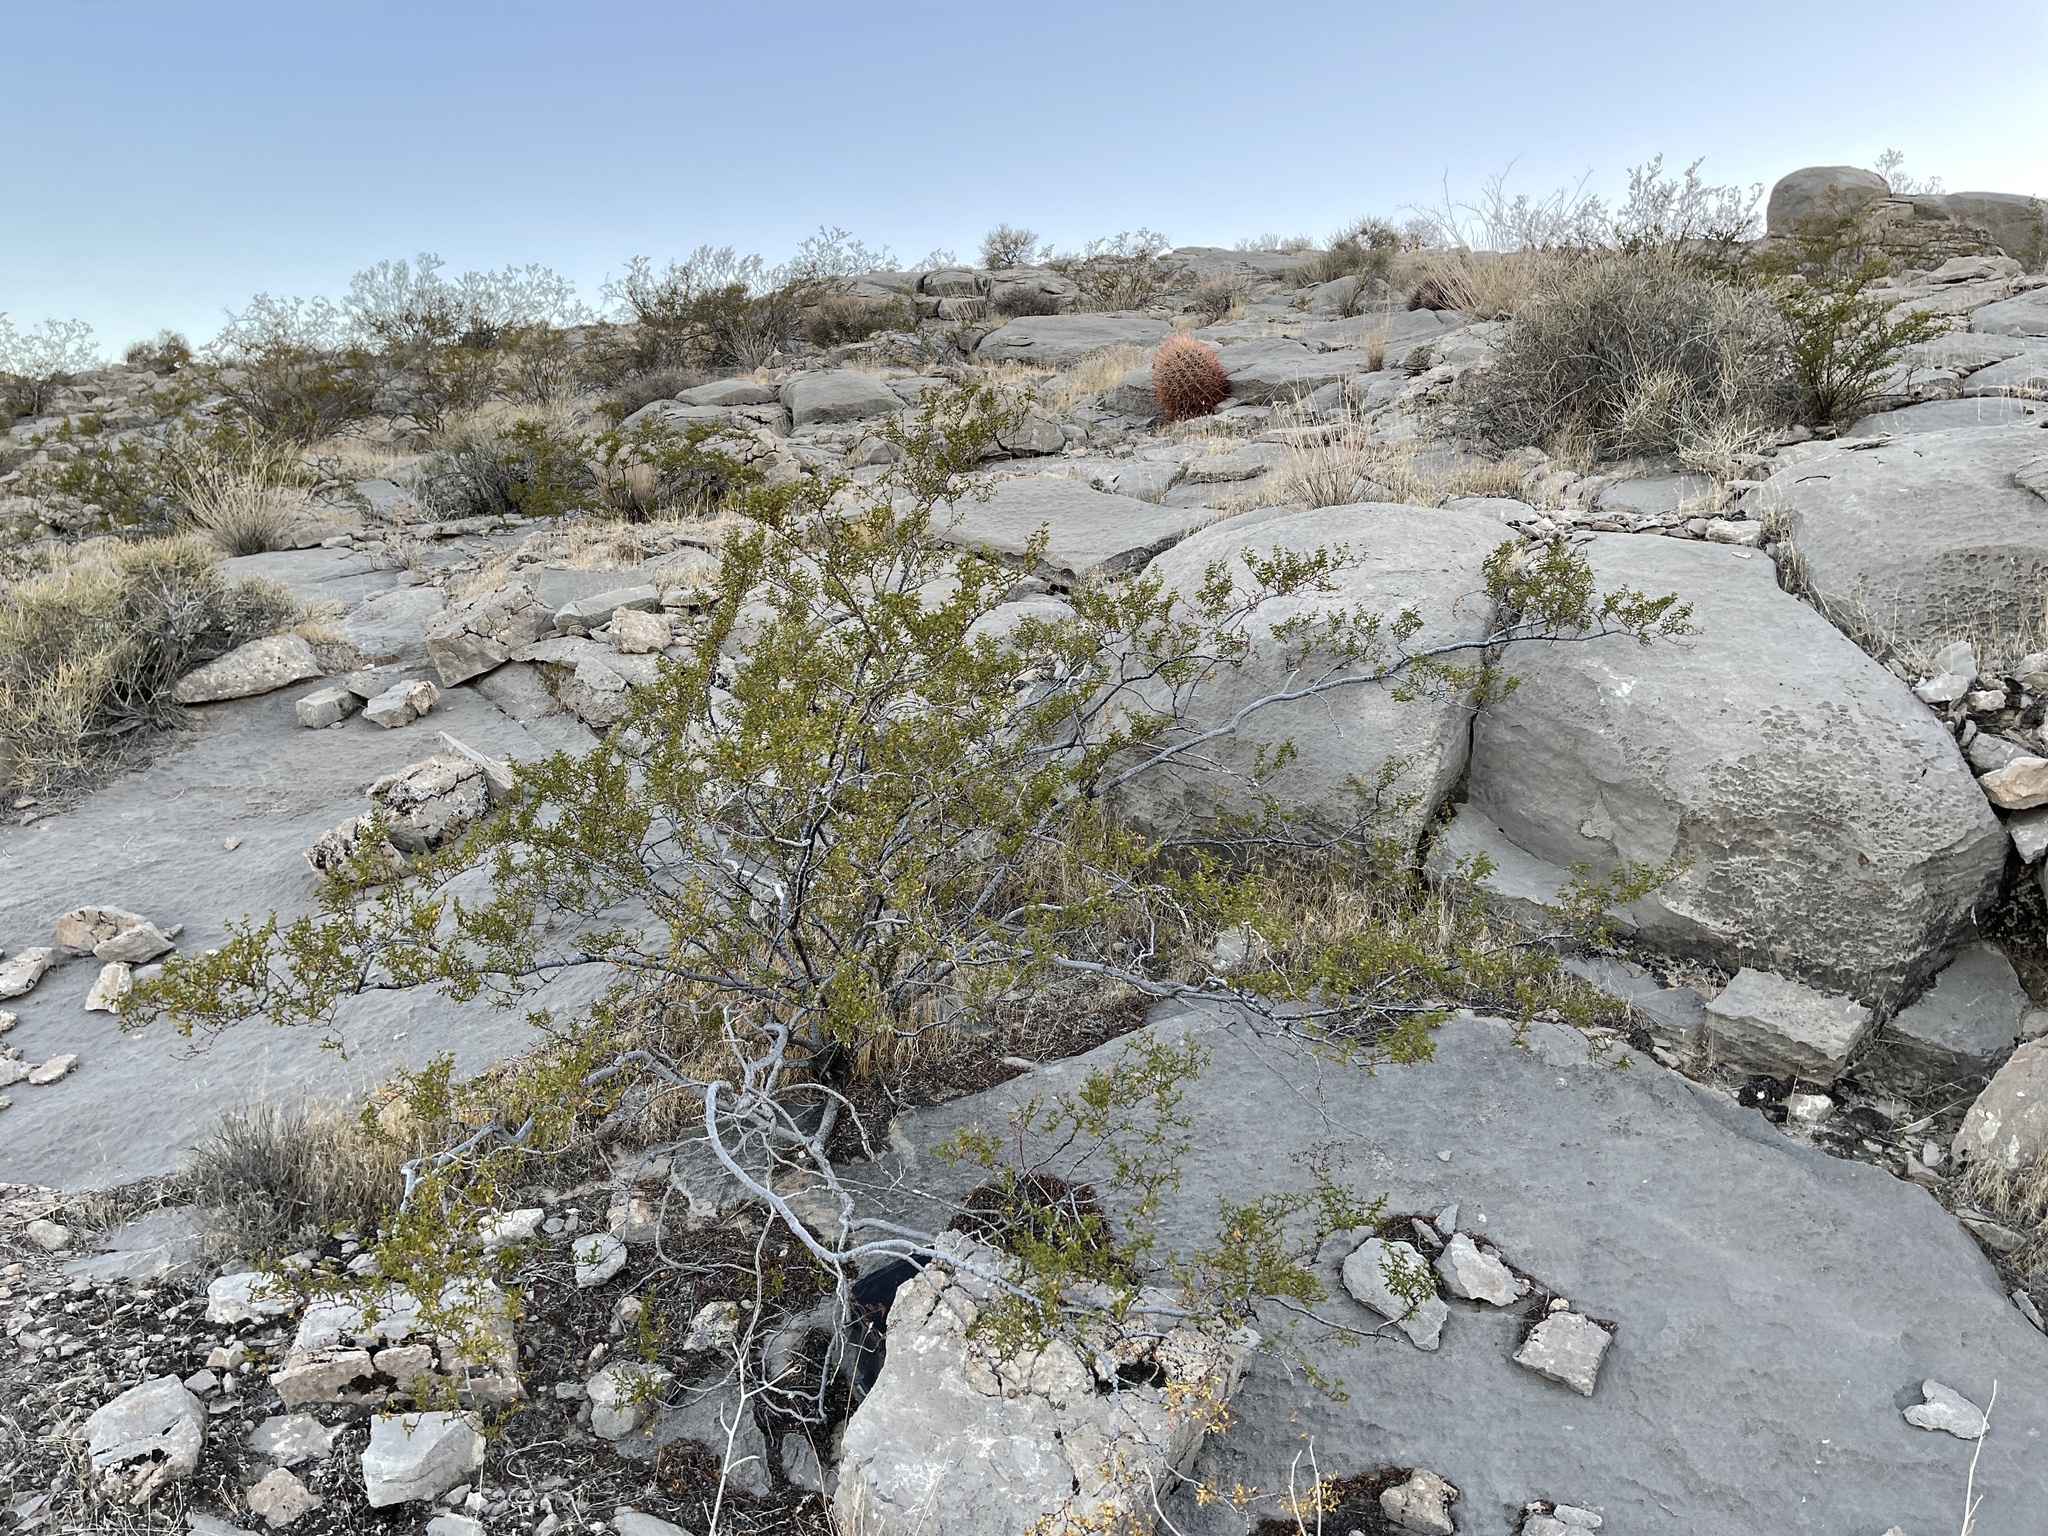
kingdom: Plantae
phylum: Tracheophyta
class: Magnoliopsida
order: Zygophyllales
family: Zygophyllaceae
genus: Larrea
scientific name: Larrea tridentata
